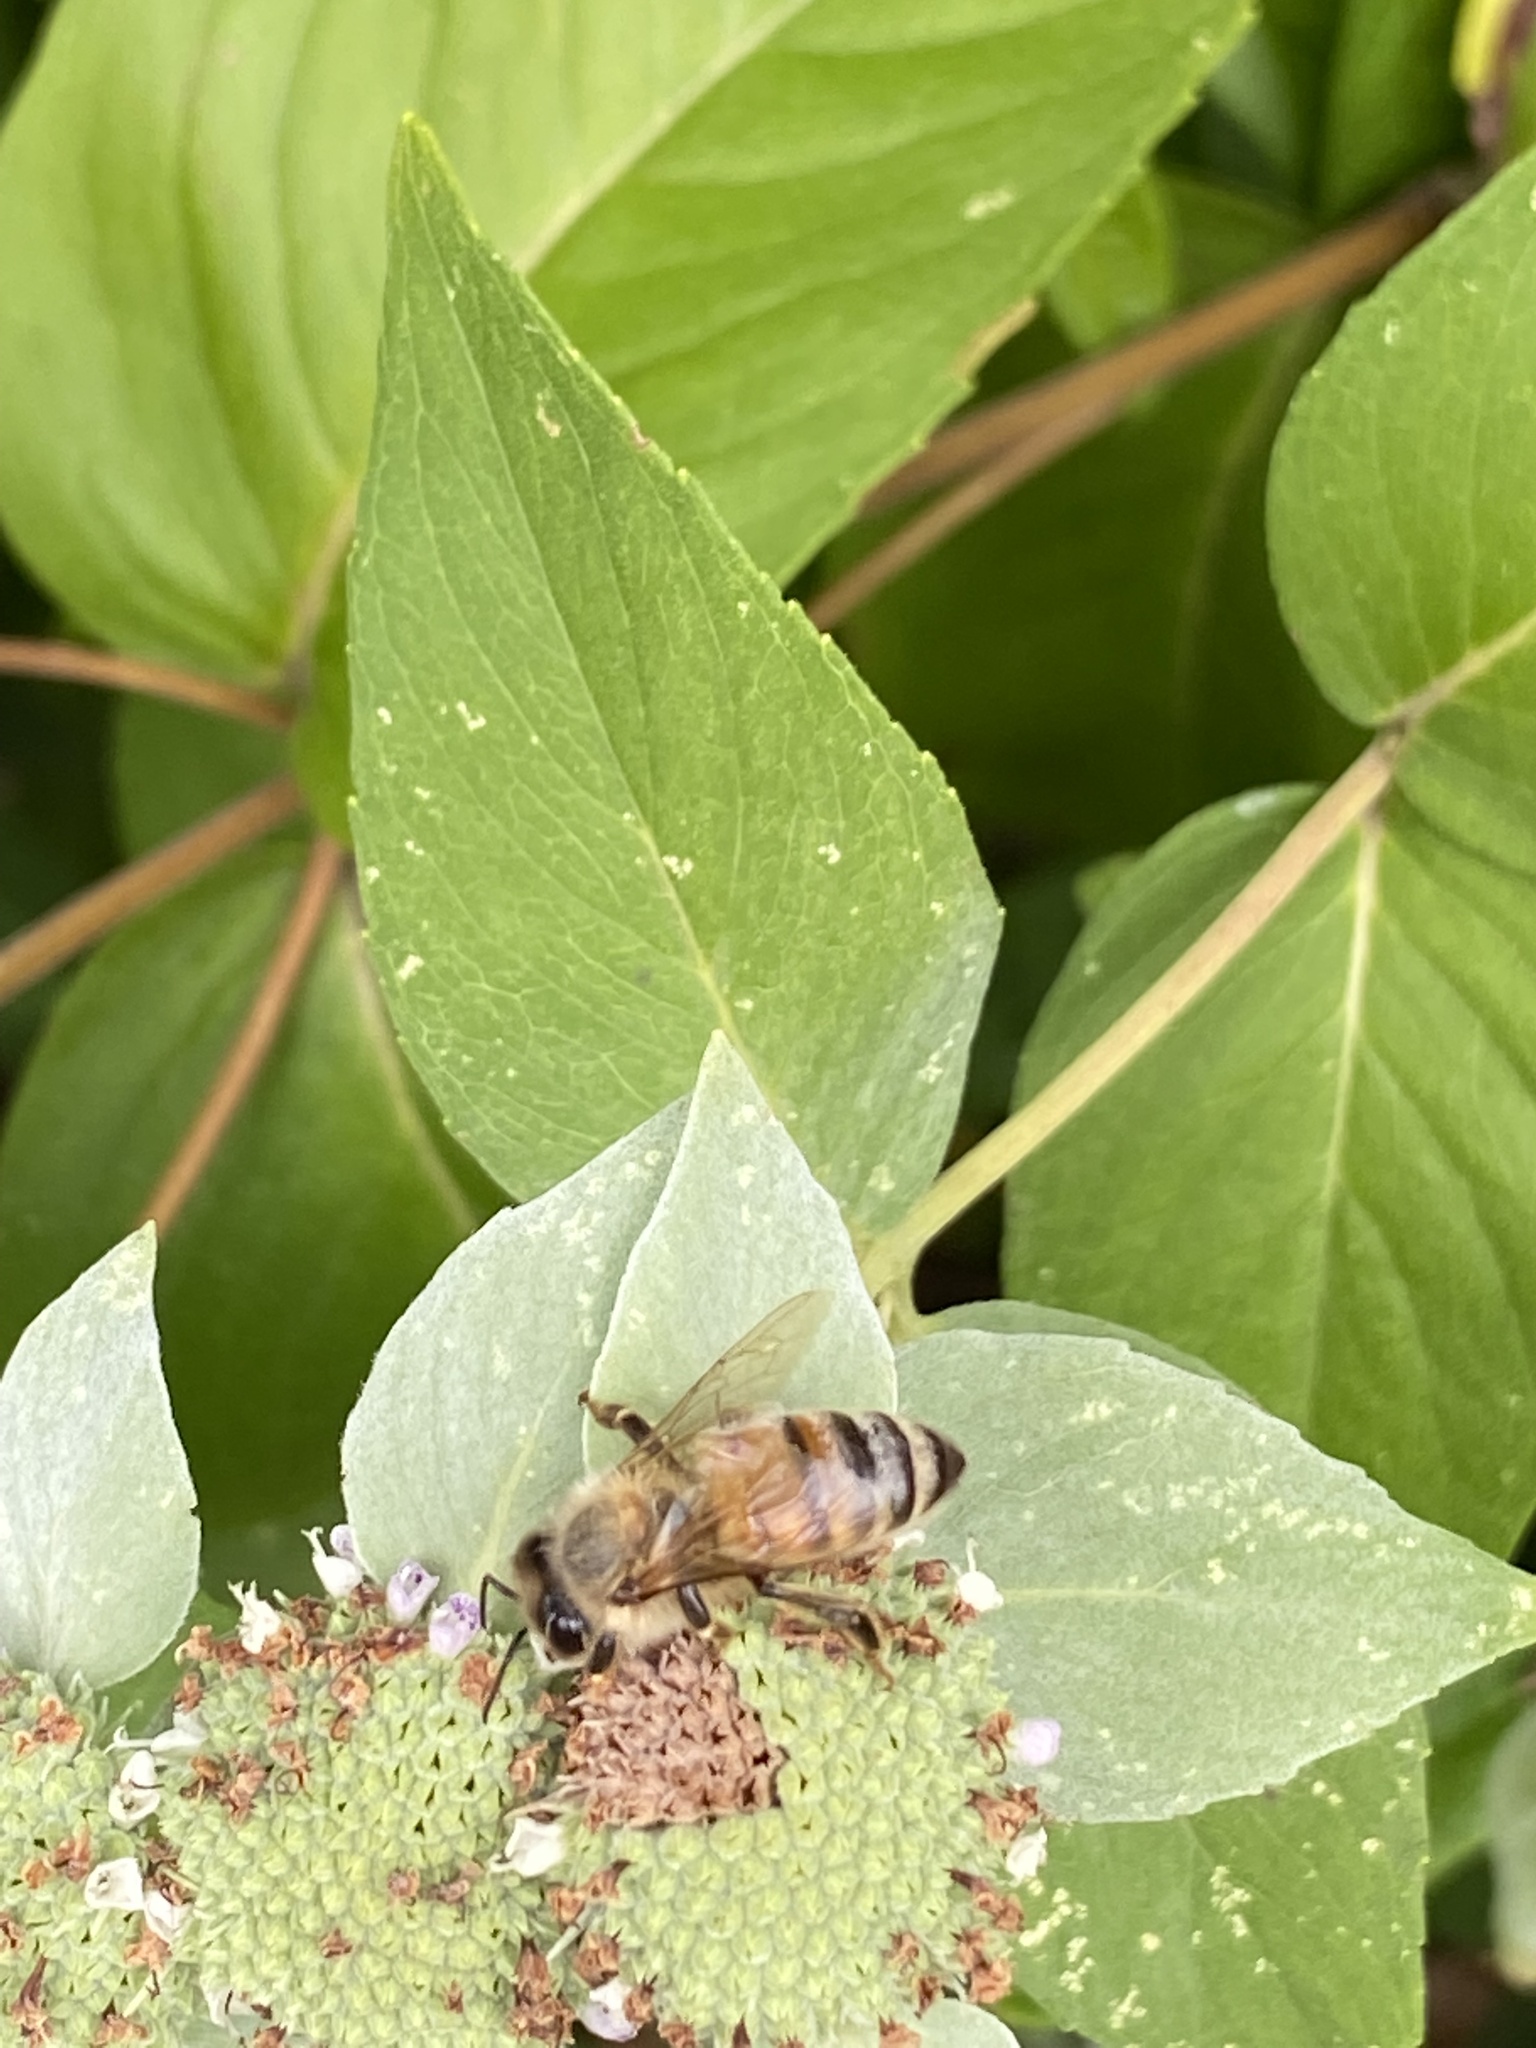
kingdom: Animalia
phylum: Arthropoda
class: Insecta
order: Hymenoptera
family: Apidae
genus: Apis
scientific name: Apis mellifera
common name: Honey bee
